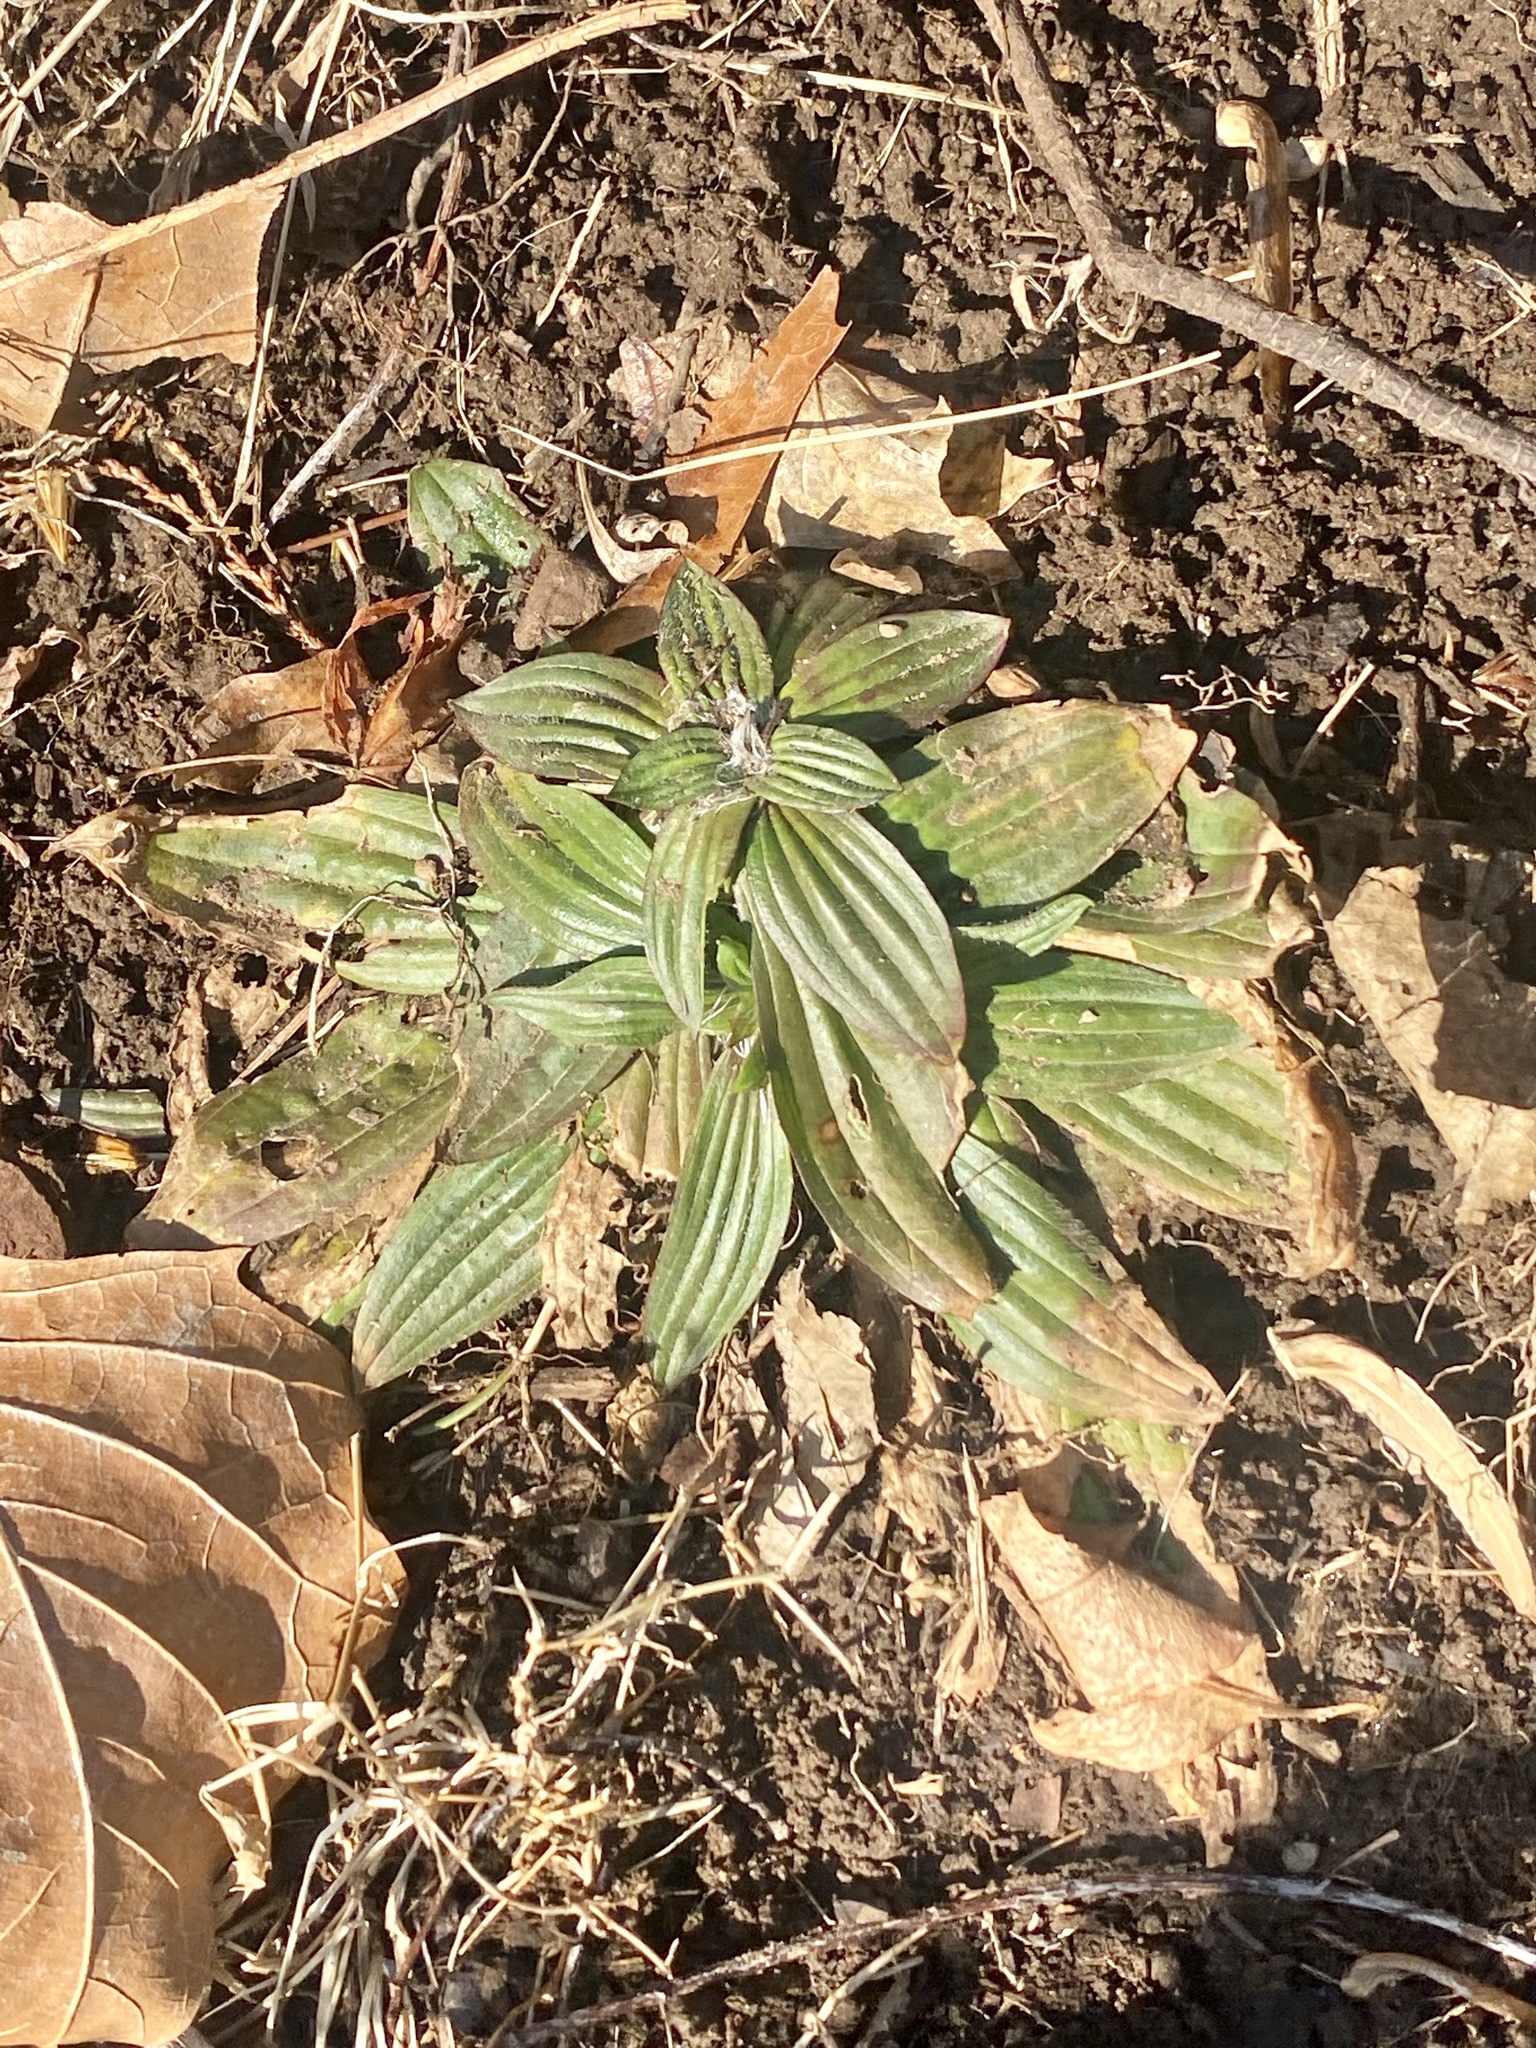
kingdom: Plantae
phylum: Tracheophyta
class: Magnoliopsida
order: Lamiales
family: Plantaginaceae
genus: Plantago
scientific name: Plantago lanceolata
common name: Ribwort plantain
